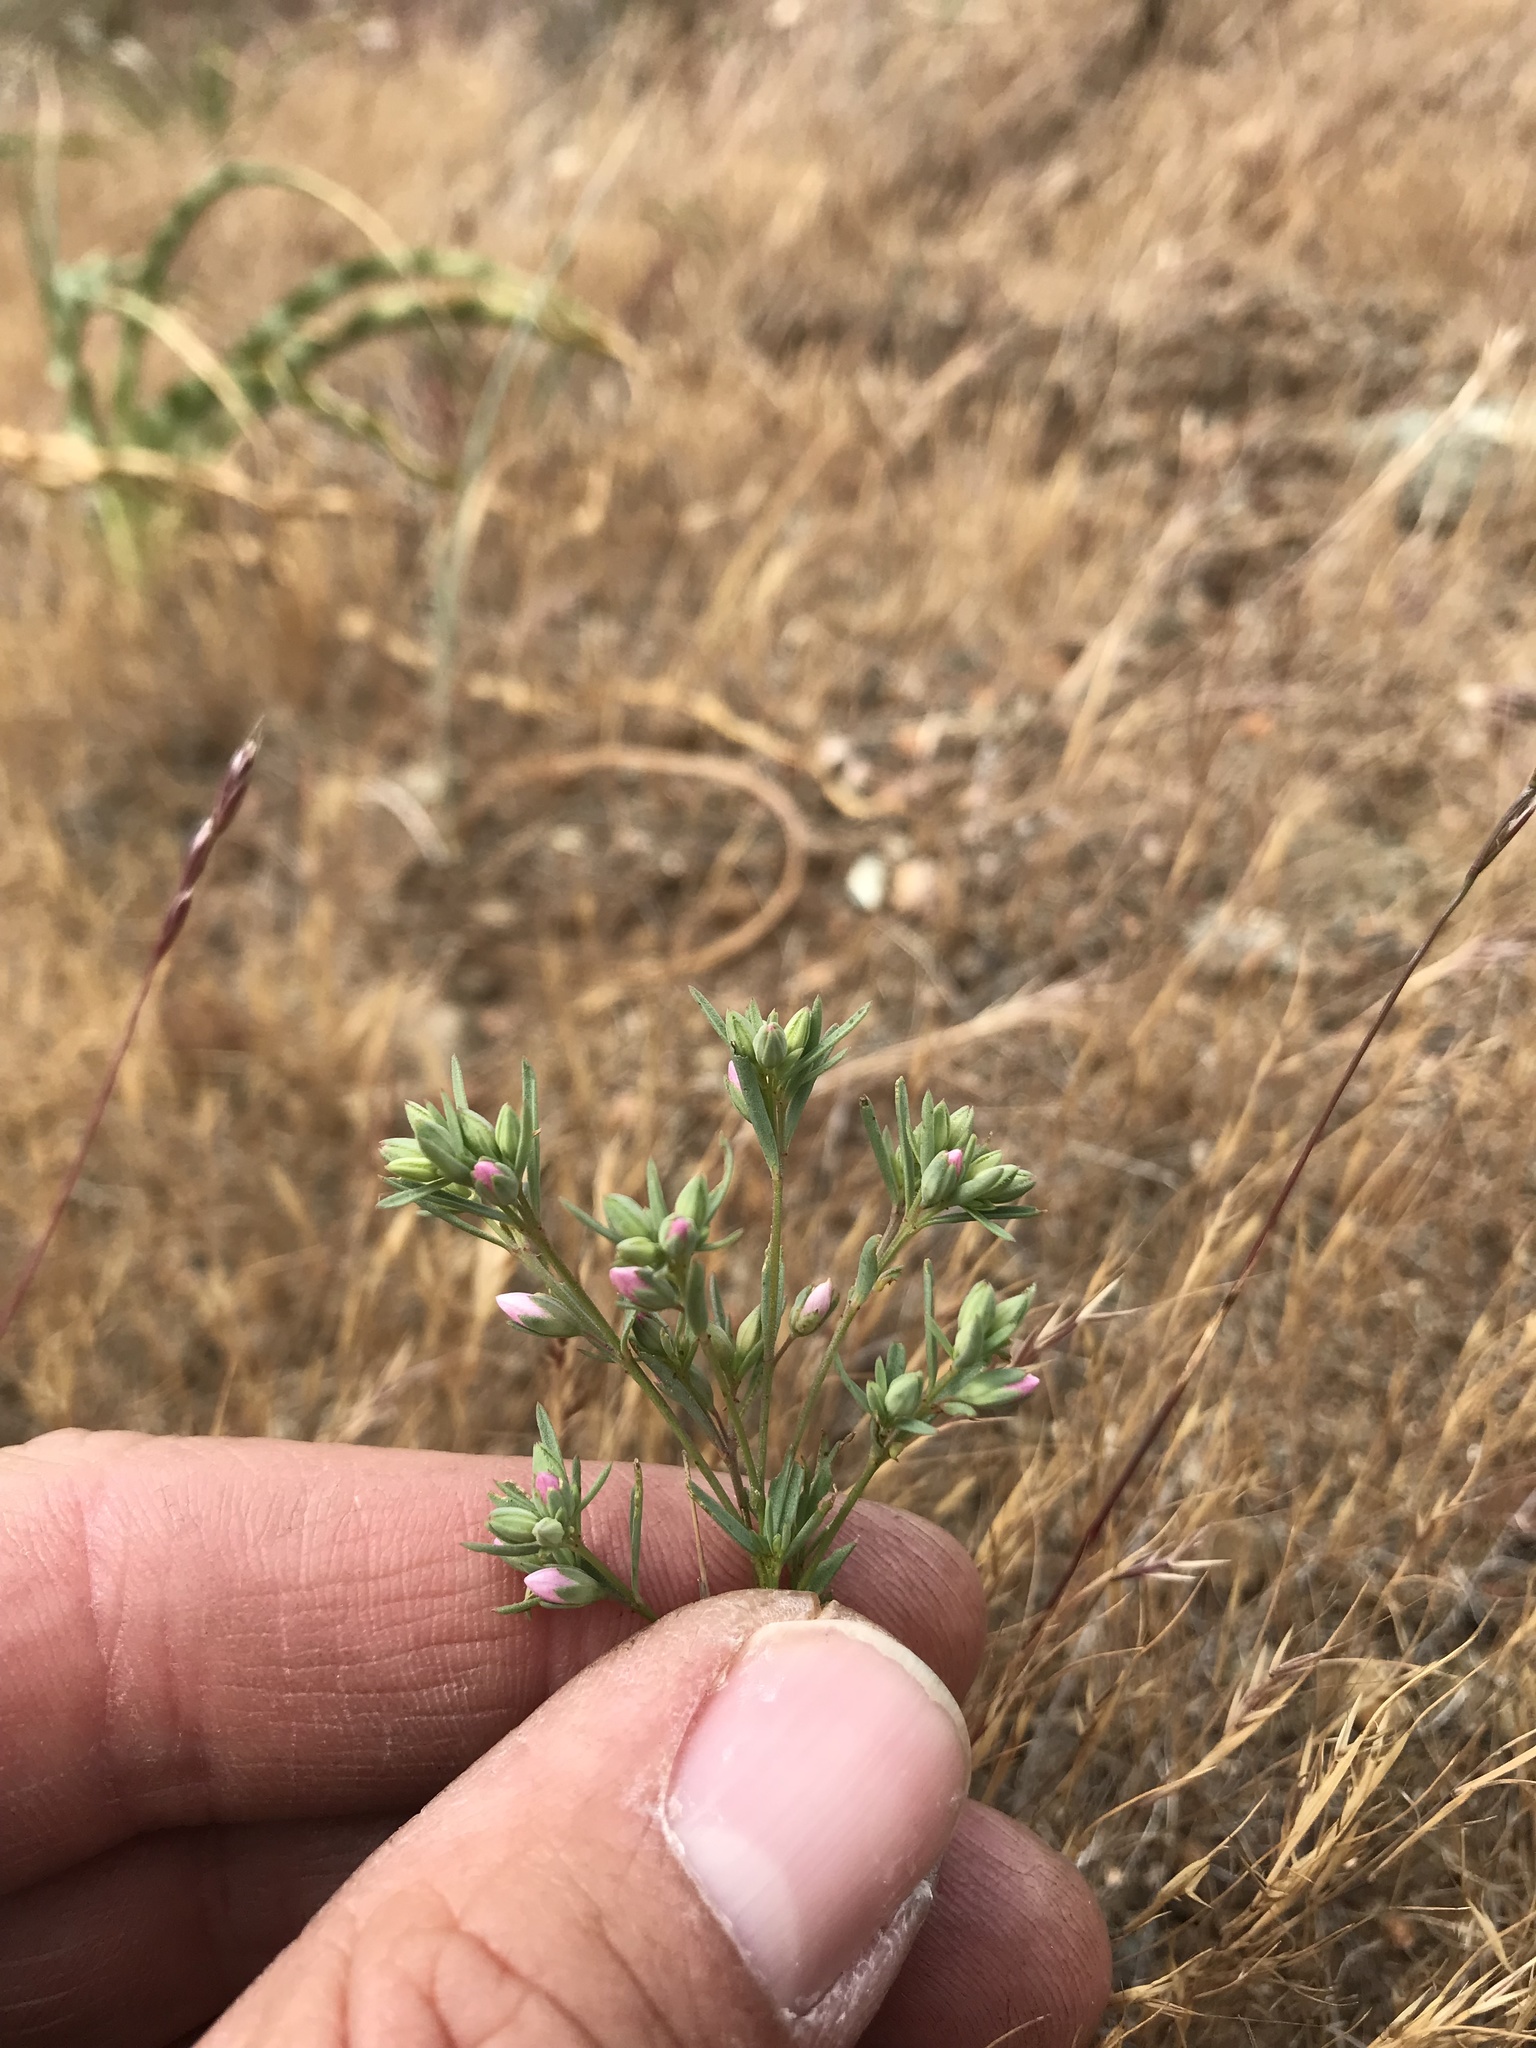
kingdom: Plantae
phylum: Tracheophyta
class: Magnoliopsida
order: Malpighiales
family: Linaceae
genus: Hesperolinon
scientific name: Hesperolinon californicum
